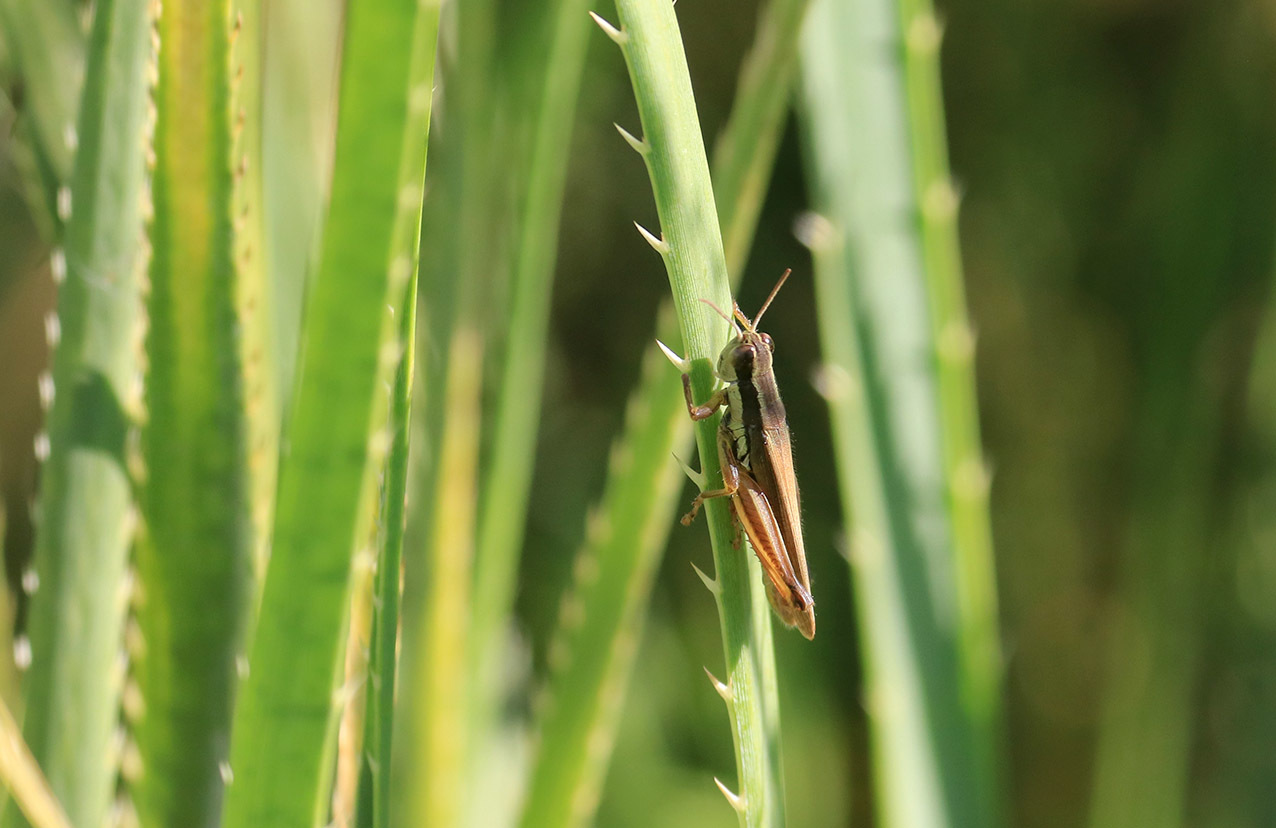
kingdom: Animalia
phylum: Arthropoda
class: Insecta
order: Orthoptera
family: Acrididae
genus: Scotussa
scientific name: Scotussa lemniscata
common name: Slender orange-legged grasshopper
